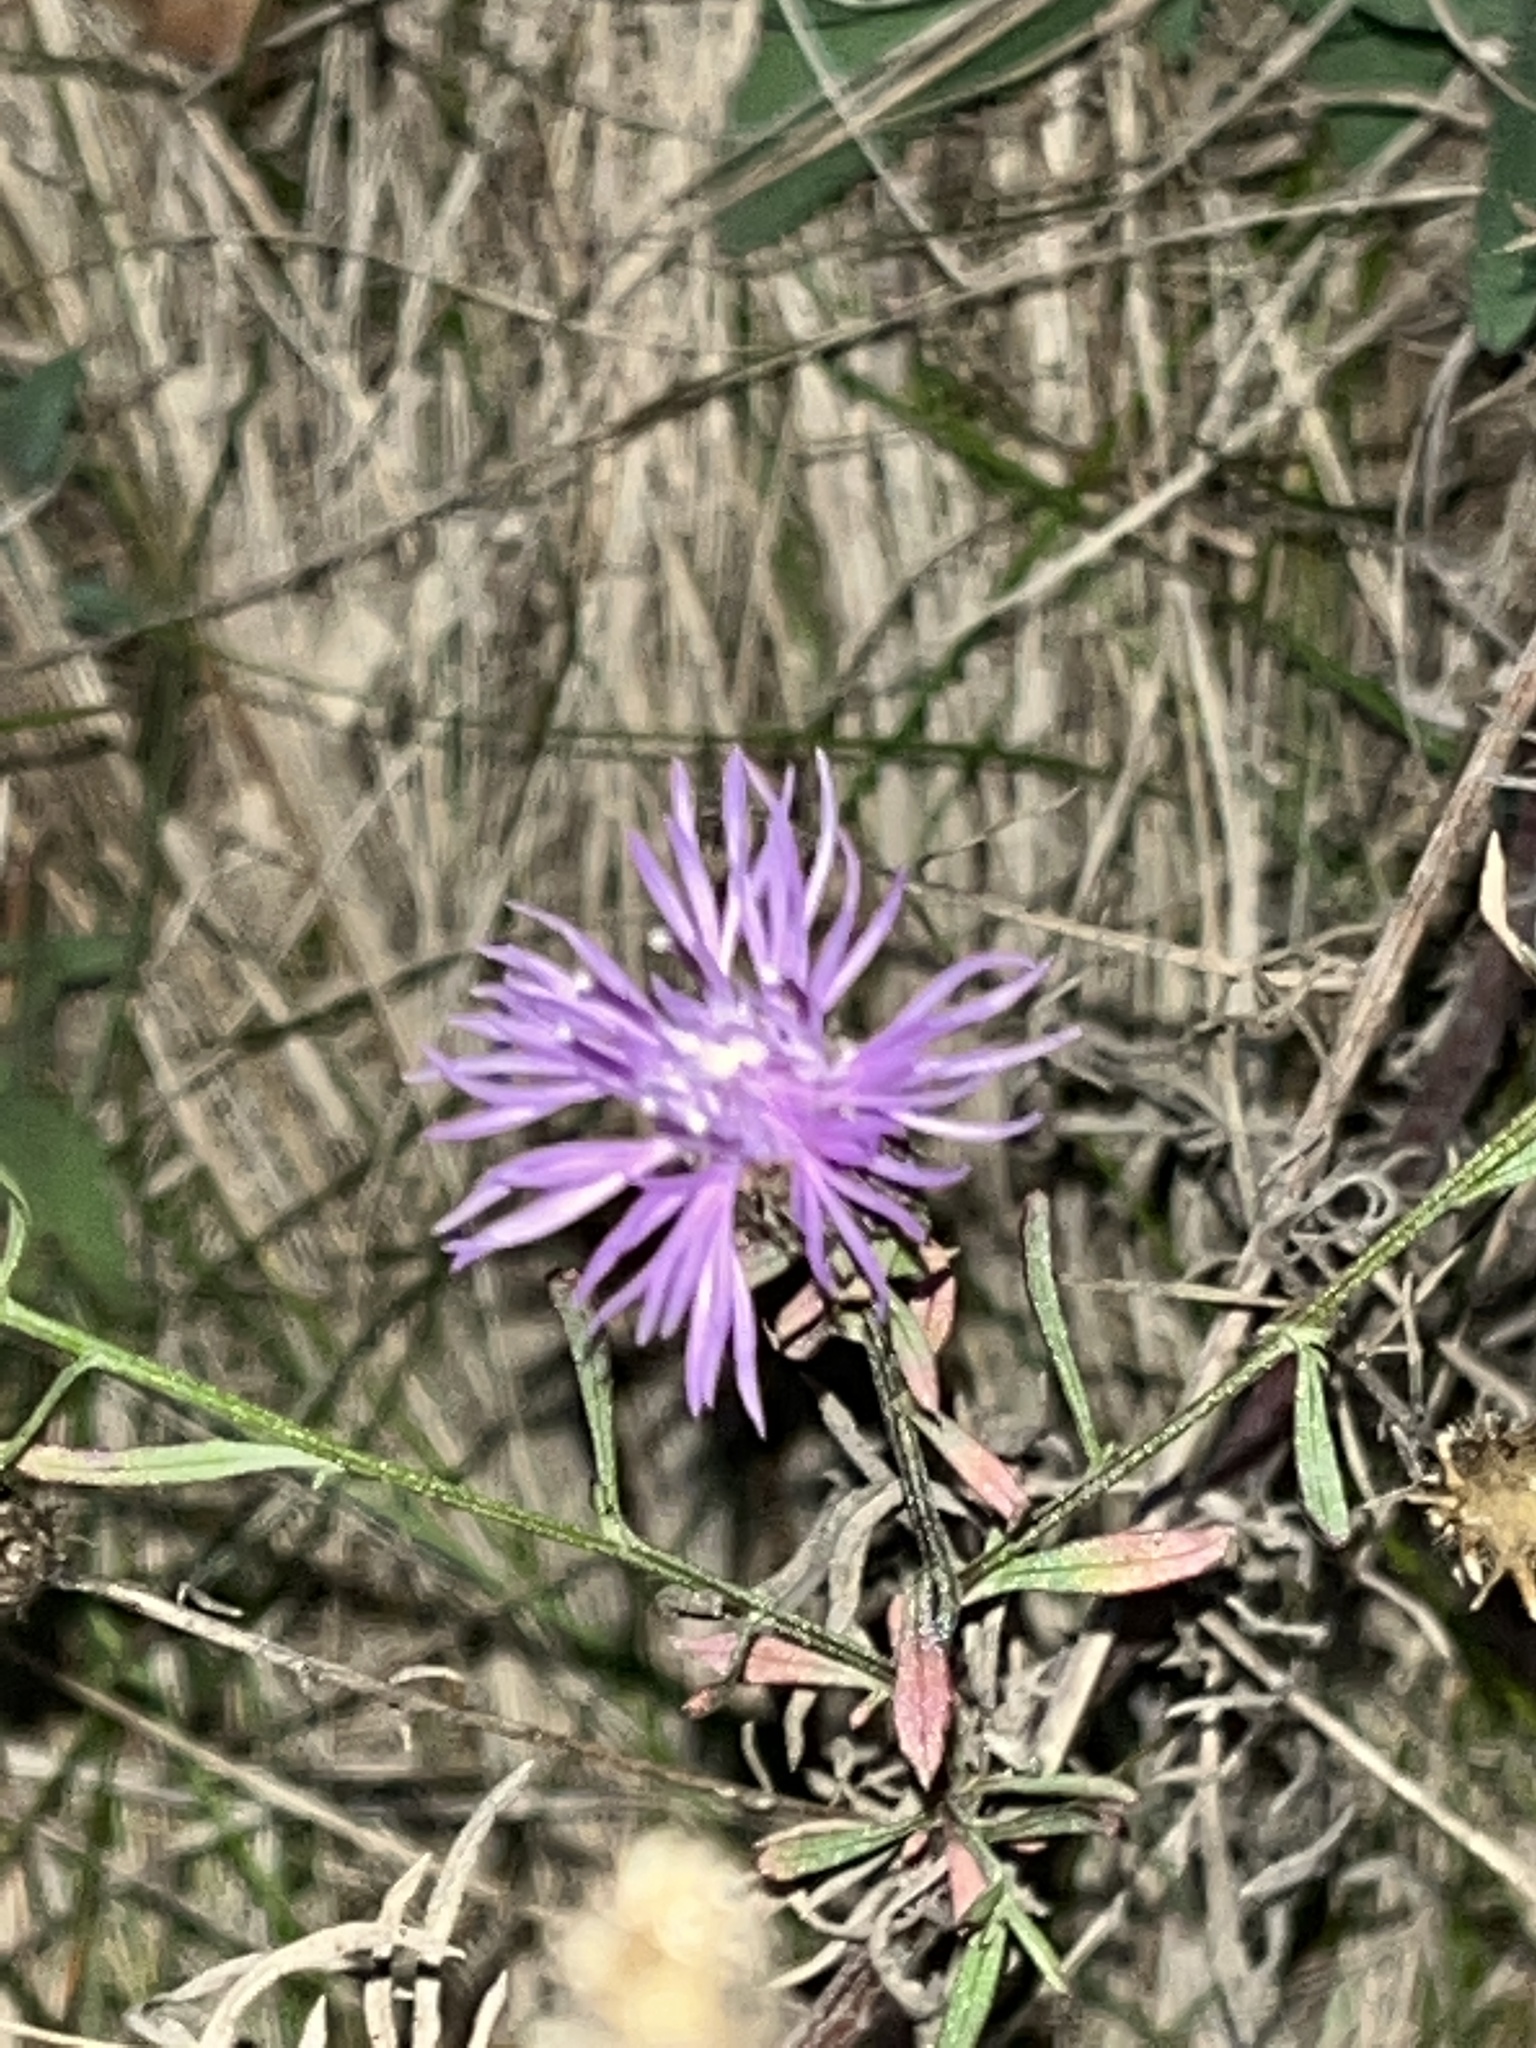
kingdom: Plantae
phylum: Tracheophyta
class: Magnoliopsida
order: Asterales
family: Asteraceae
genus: Centaurea
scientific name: Centaurea stoebe
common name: Spotted knapweed
